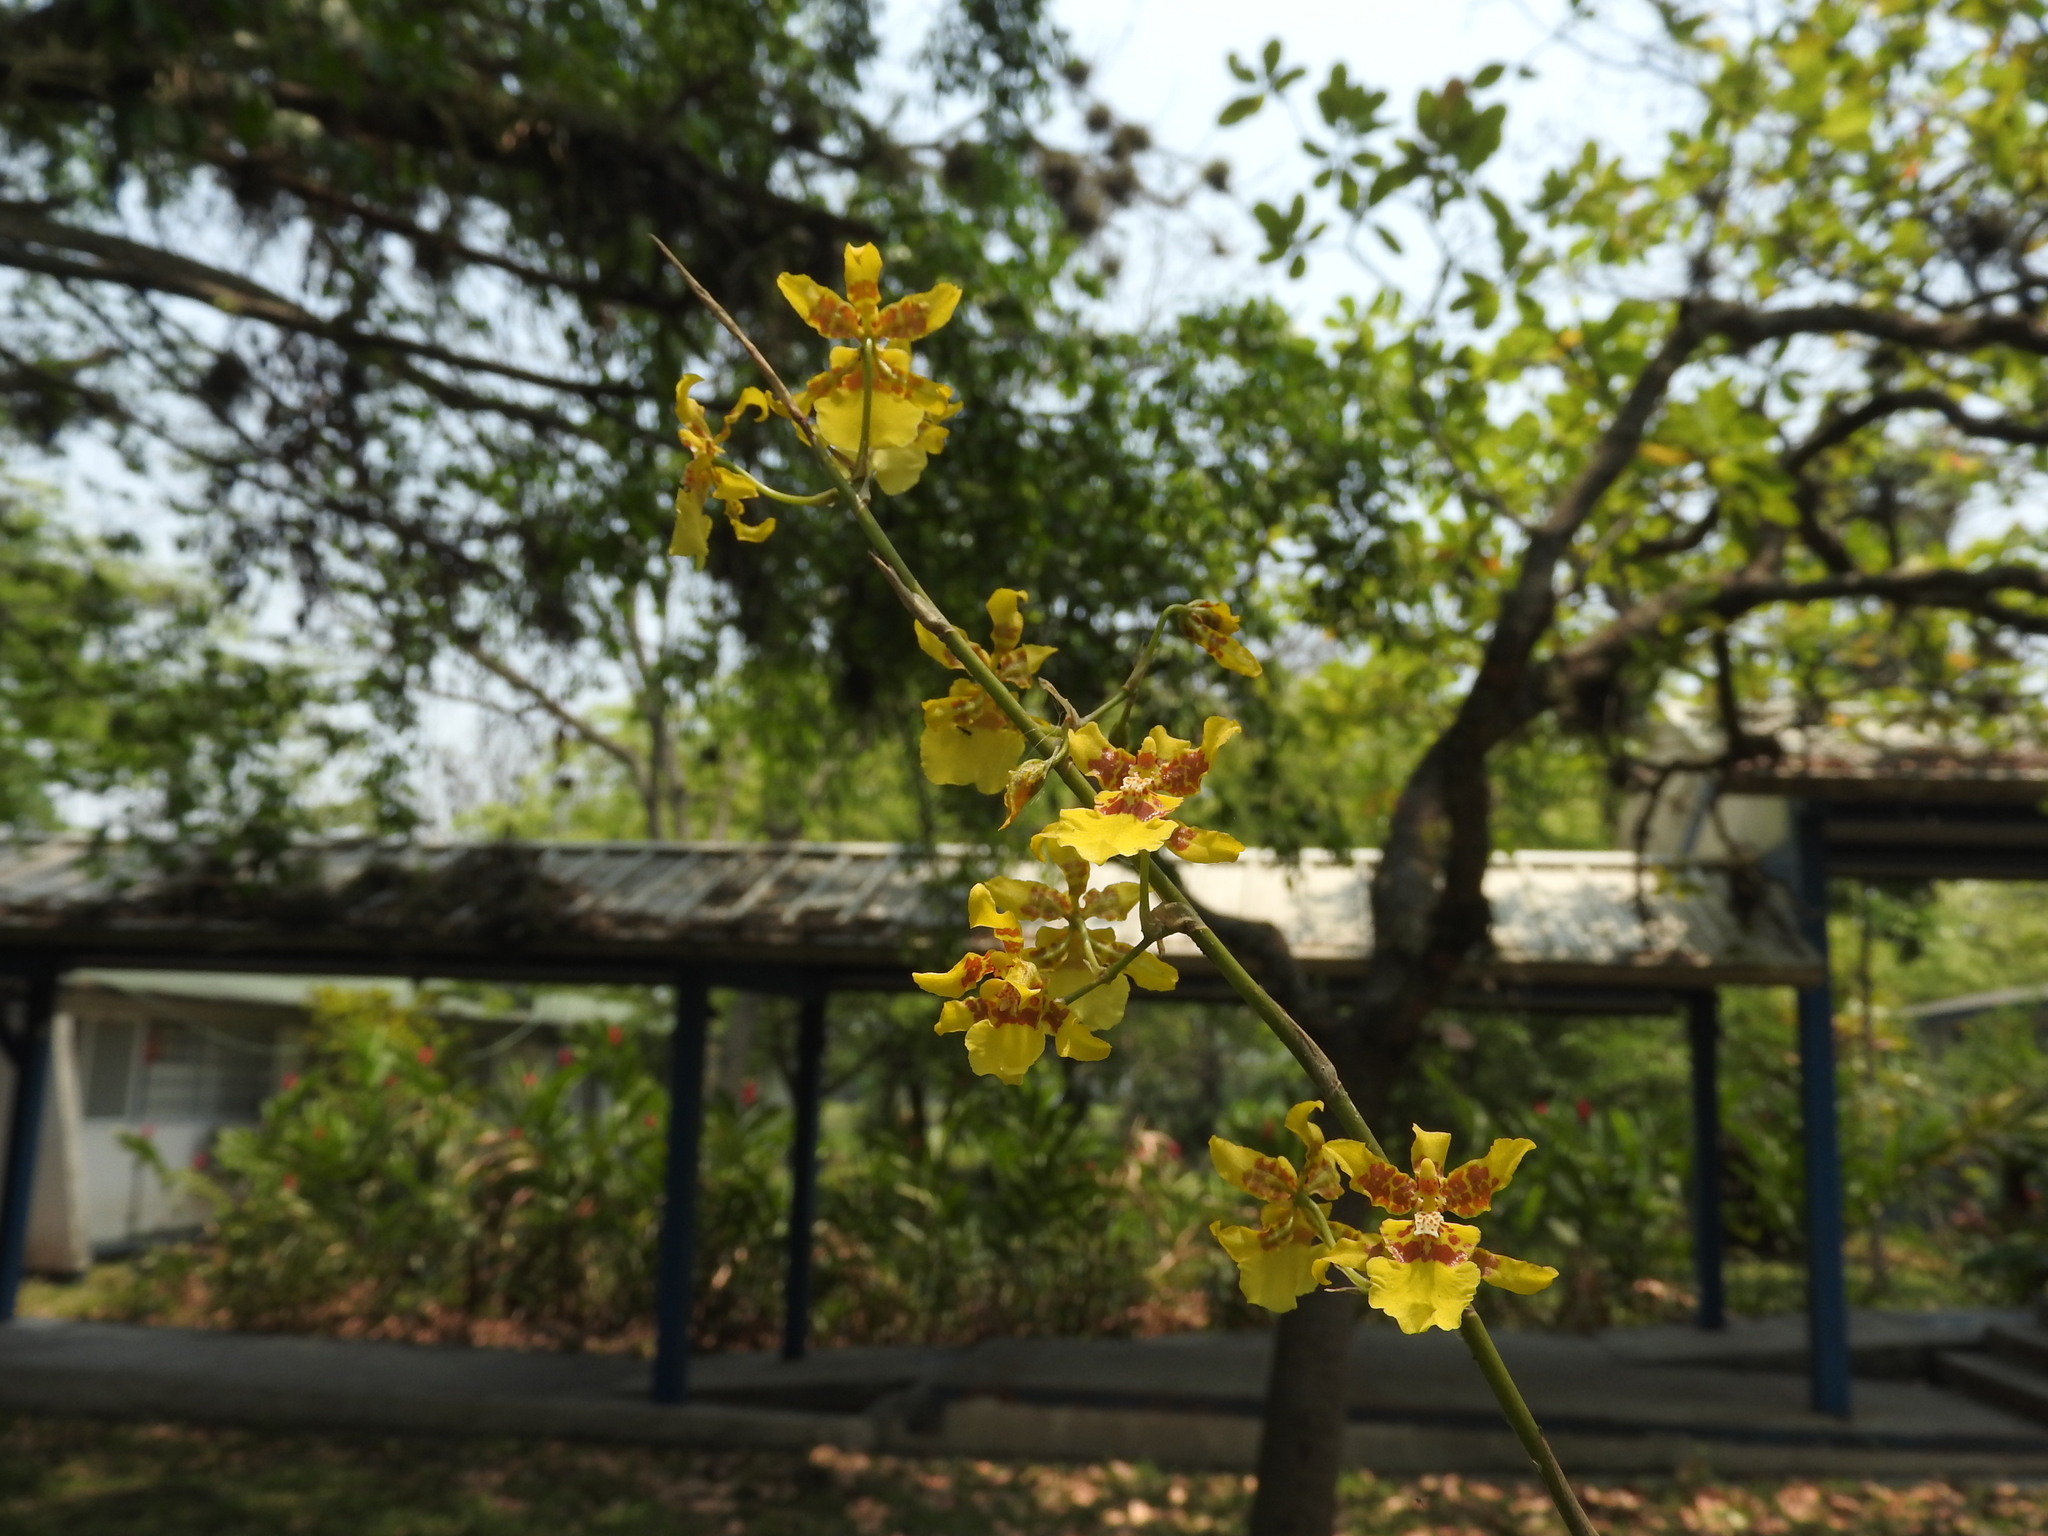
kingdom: Plantae
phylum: Tracheophyta
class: Liliopsida
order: Asparagales
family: Orchidaceae
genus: Oncidium
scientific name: Oncidium sphacelatum
